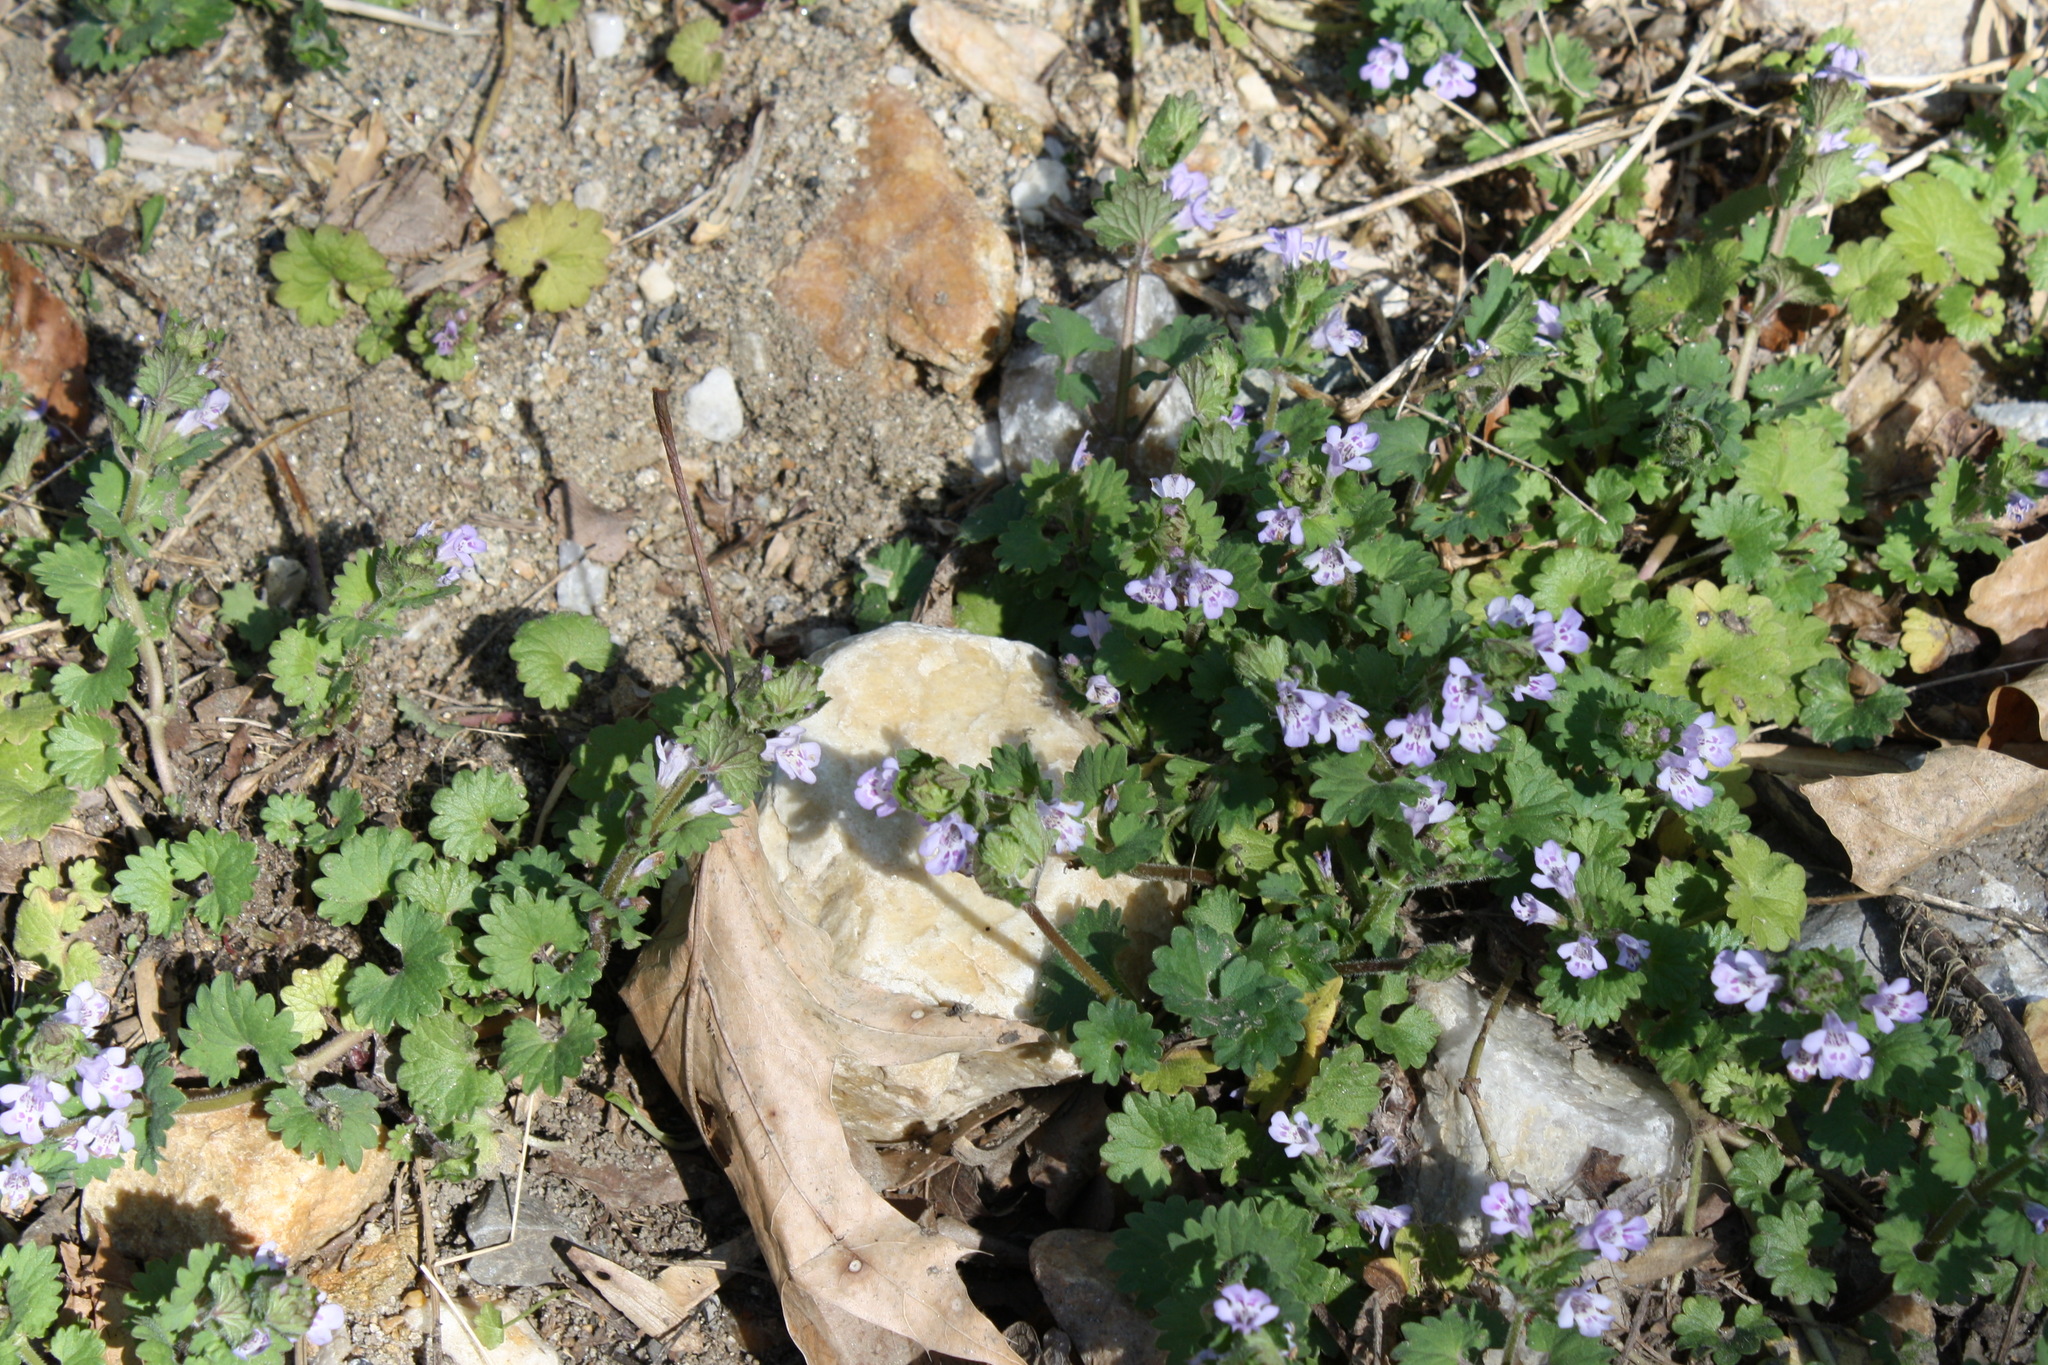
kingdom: Plantae
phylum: Tracheophyta
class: Magnoliopsida
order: Lamiales
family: Lamiaceae
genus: Glechoma
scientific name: Glechoma hederacea
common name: Ground ivy
